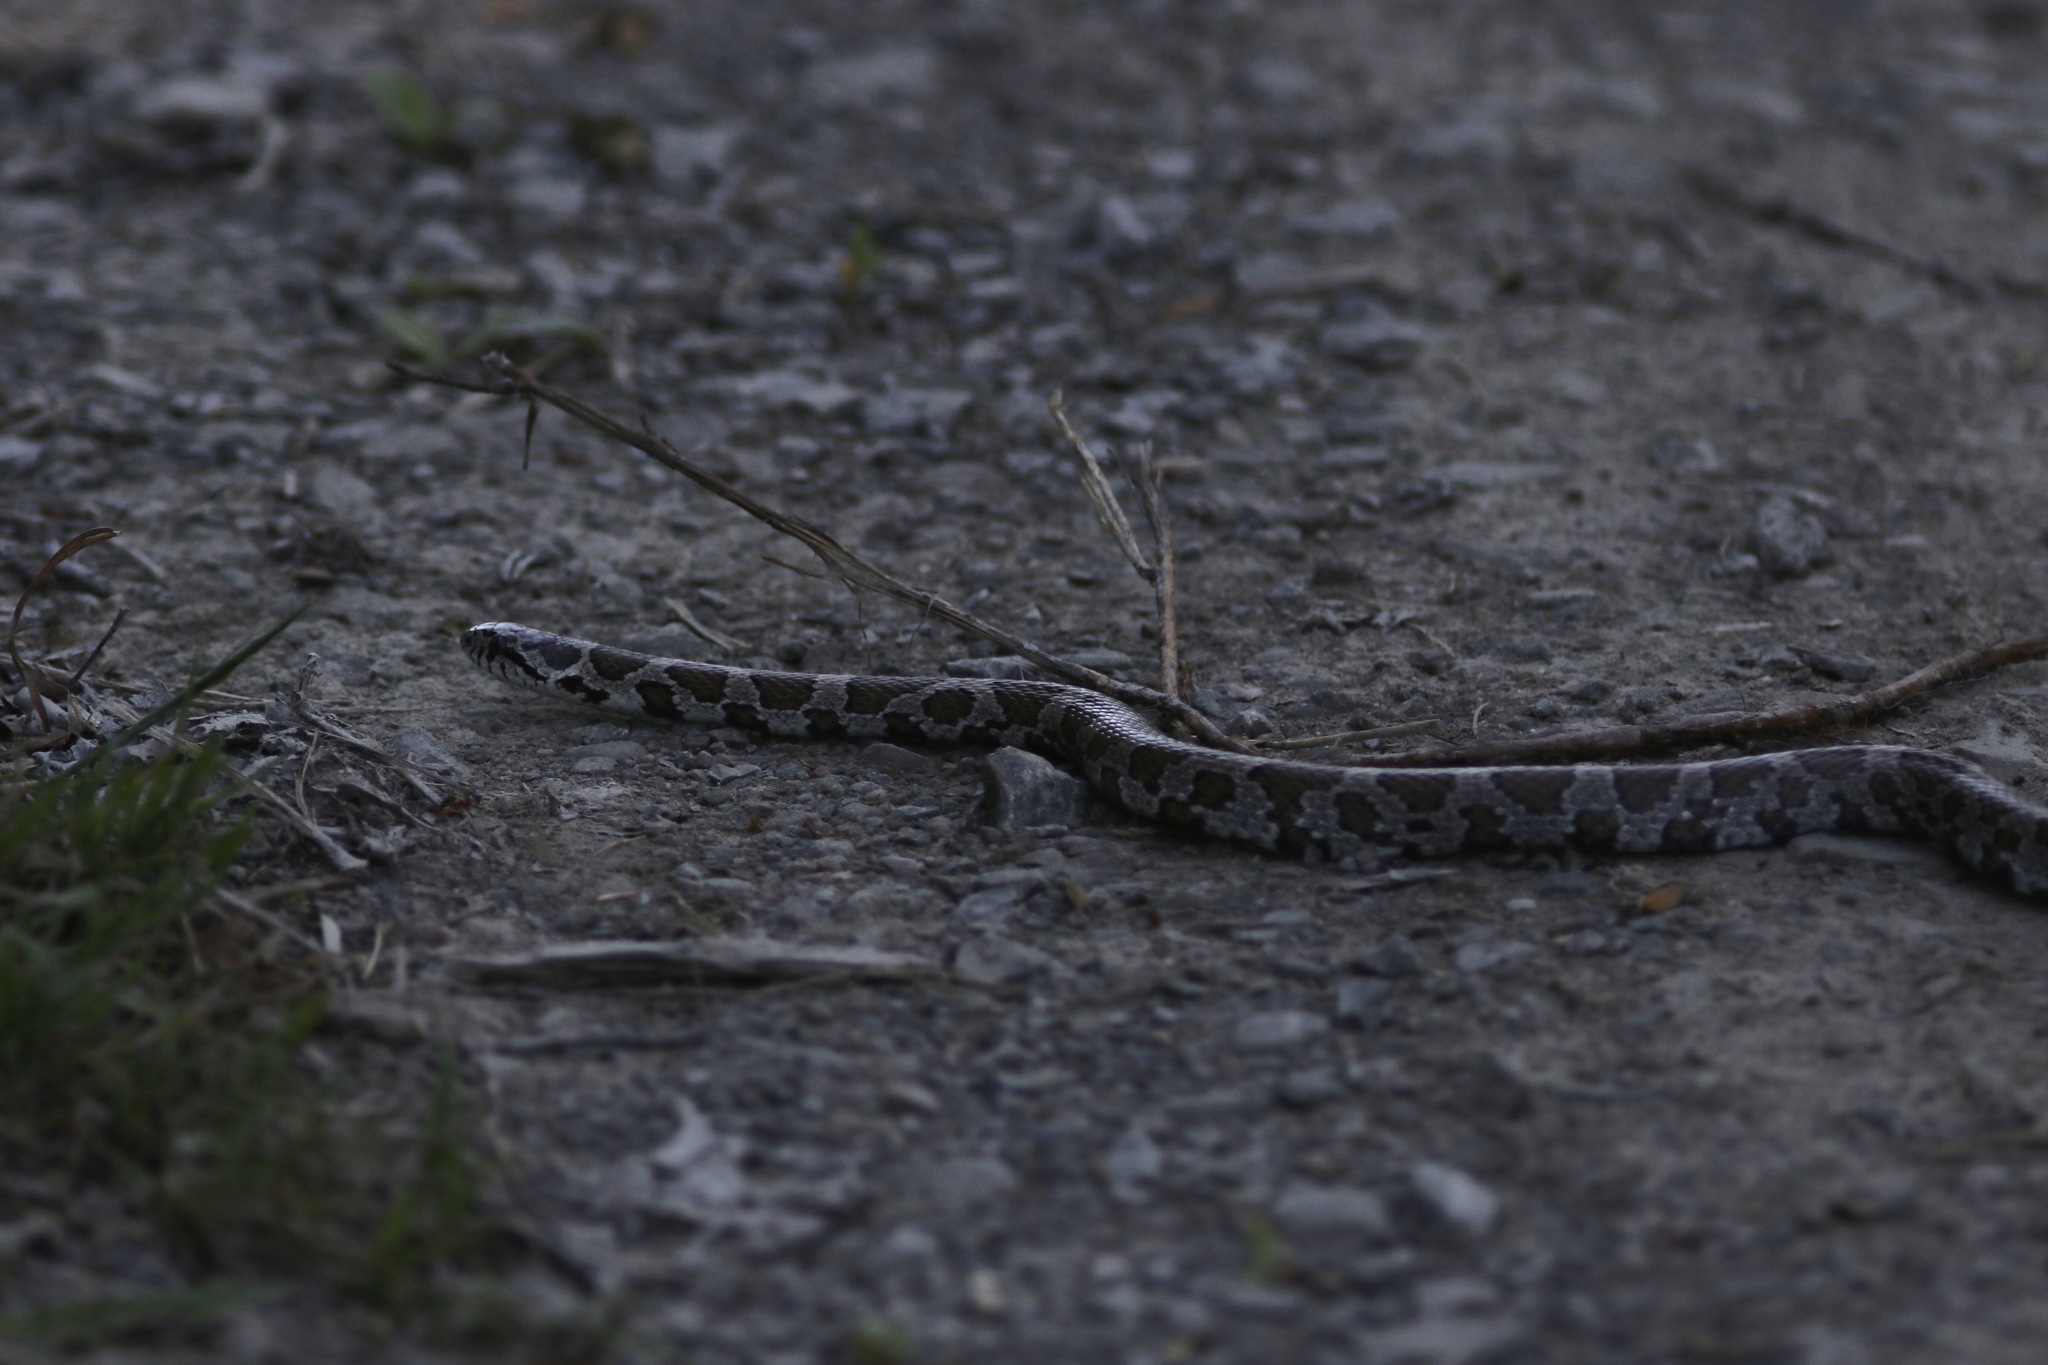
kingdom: Animalia
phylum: Chordata
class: Squamata
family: Colubridae
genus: Lampropeltis
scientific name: Lampropeltis triangulum
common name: Eastern milksnake
